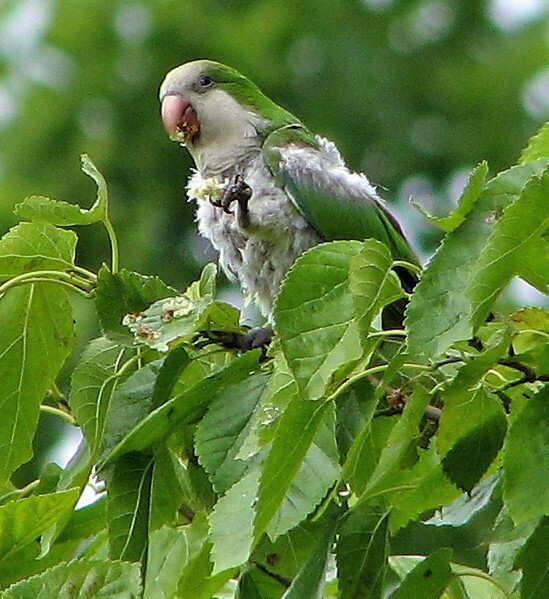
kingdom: Animalia
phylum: Chordata
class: Aves
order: Psittaciformes
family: Psittacidae
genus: Myiopsitta
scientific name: Myiopsitta monachus
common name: Monk parakeet
